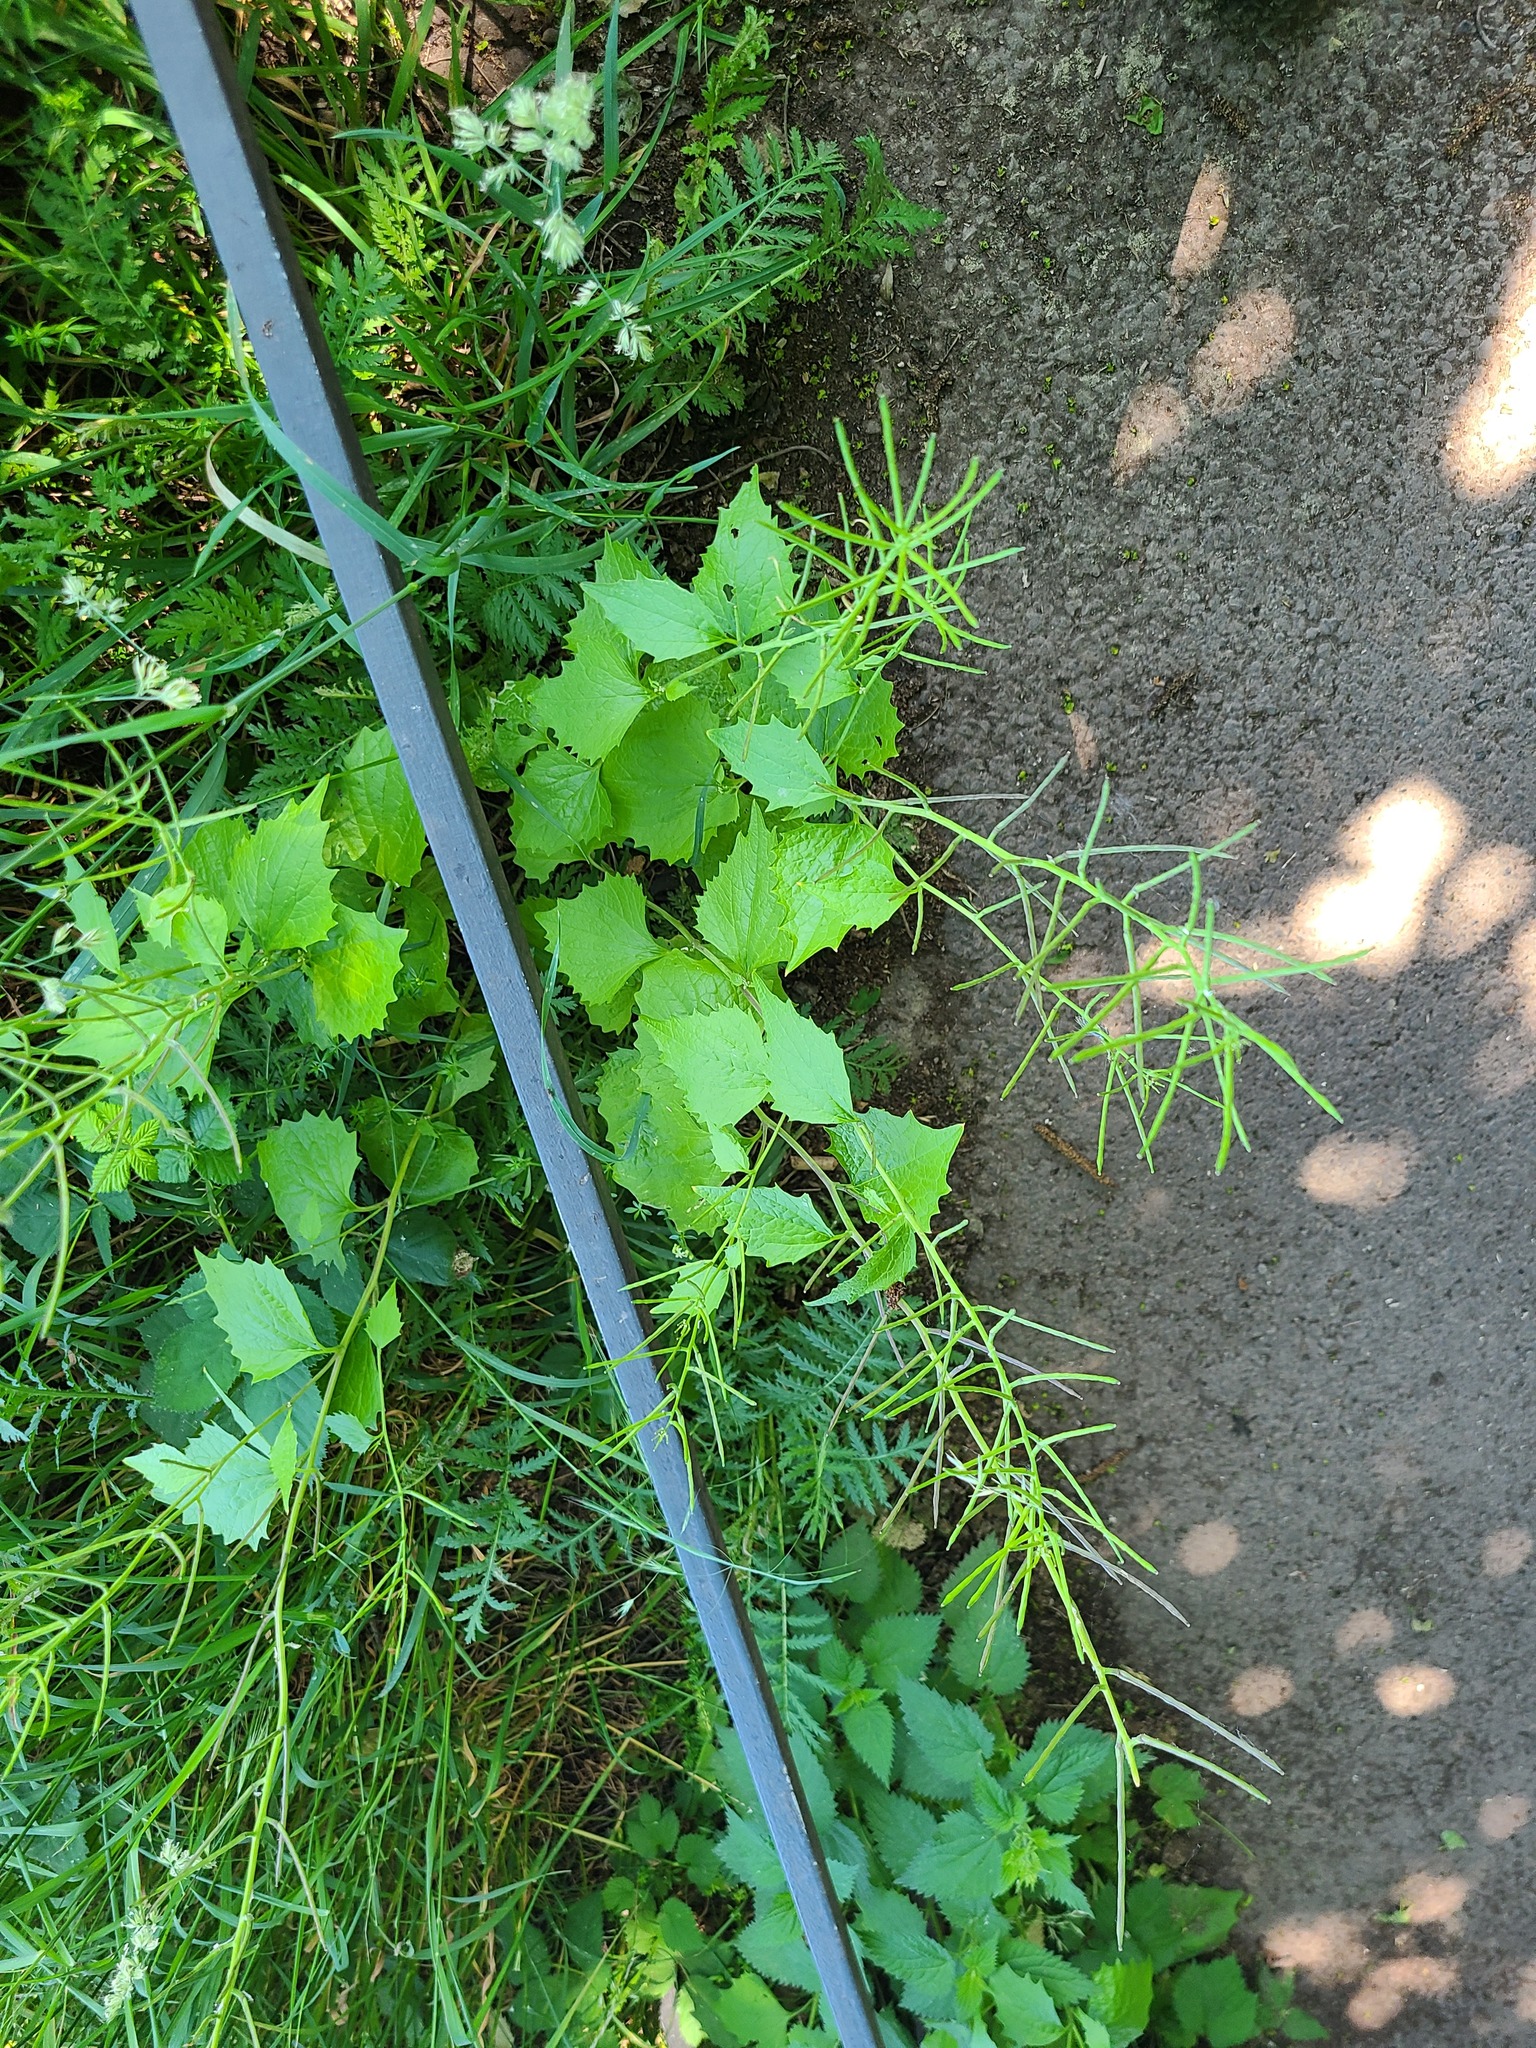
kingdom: Plantae
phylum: Tracheophyta
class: Magnoliopsida
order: Brassicales
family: Brassicaceae
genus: Alliaria
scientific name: Alliaria petiolata
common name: Garlic mustard
